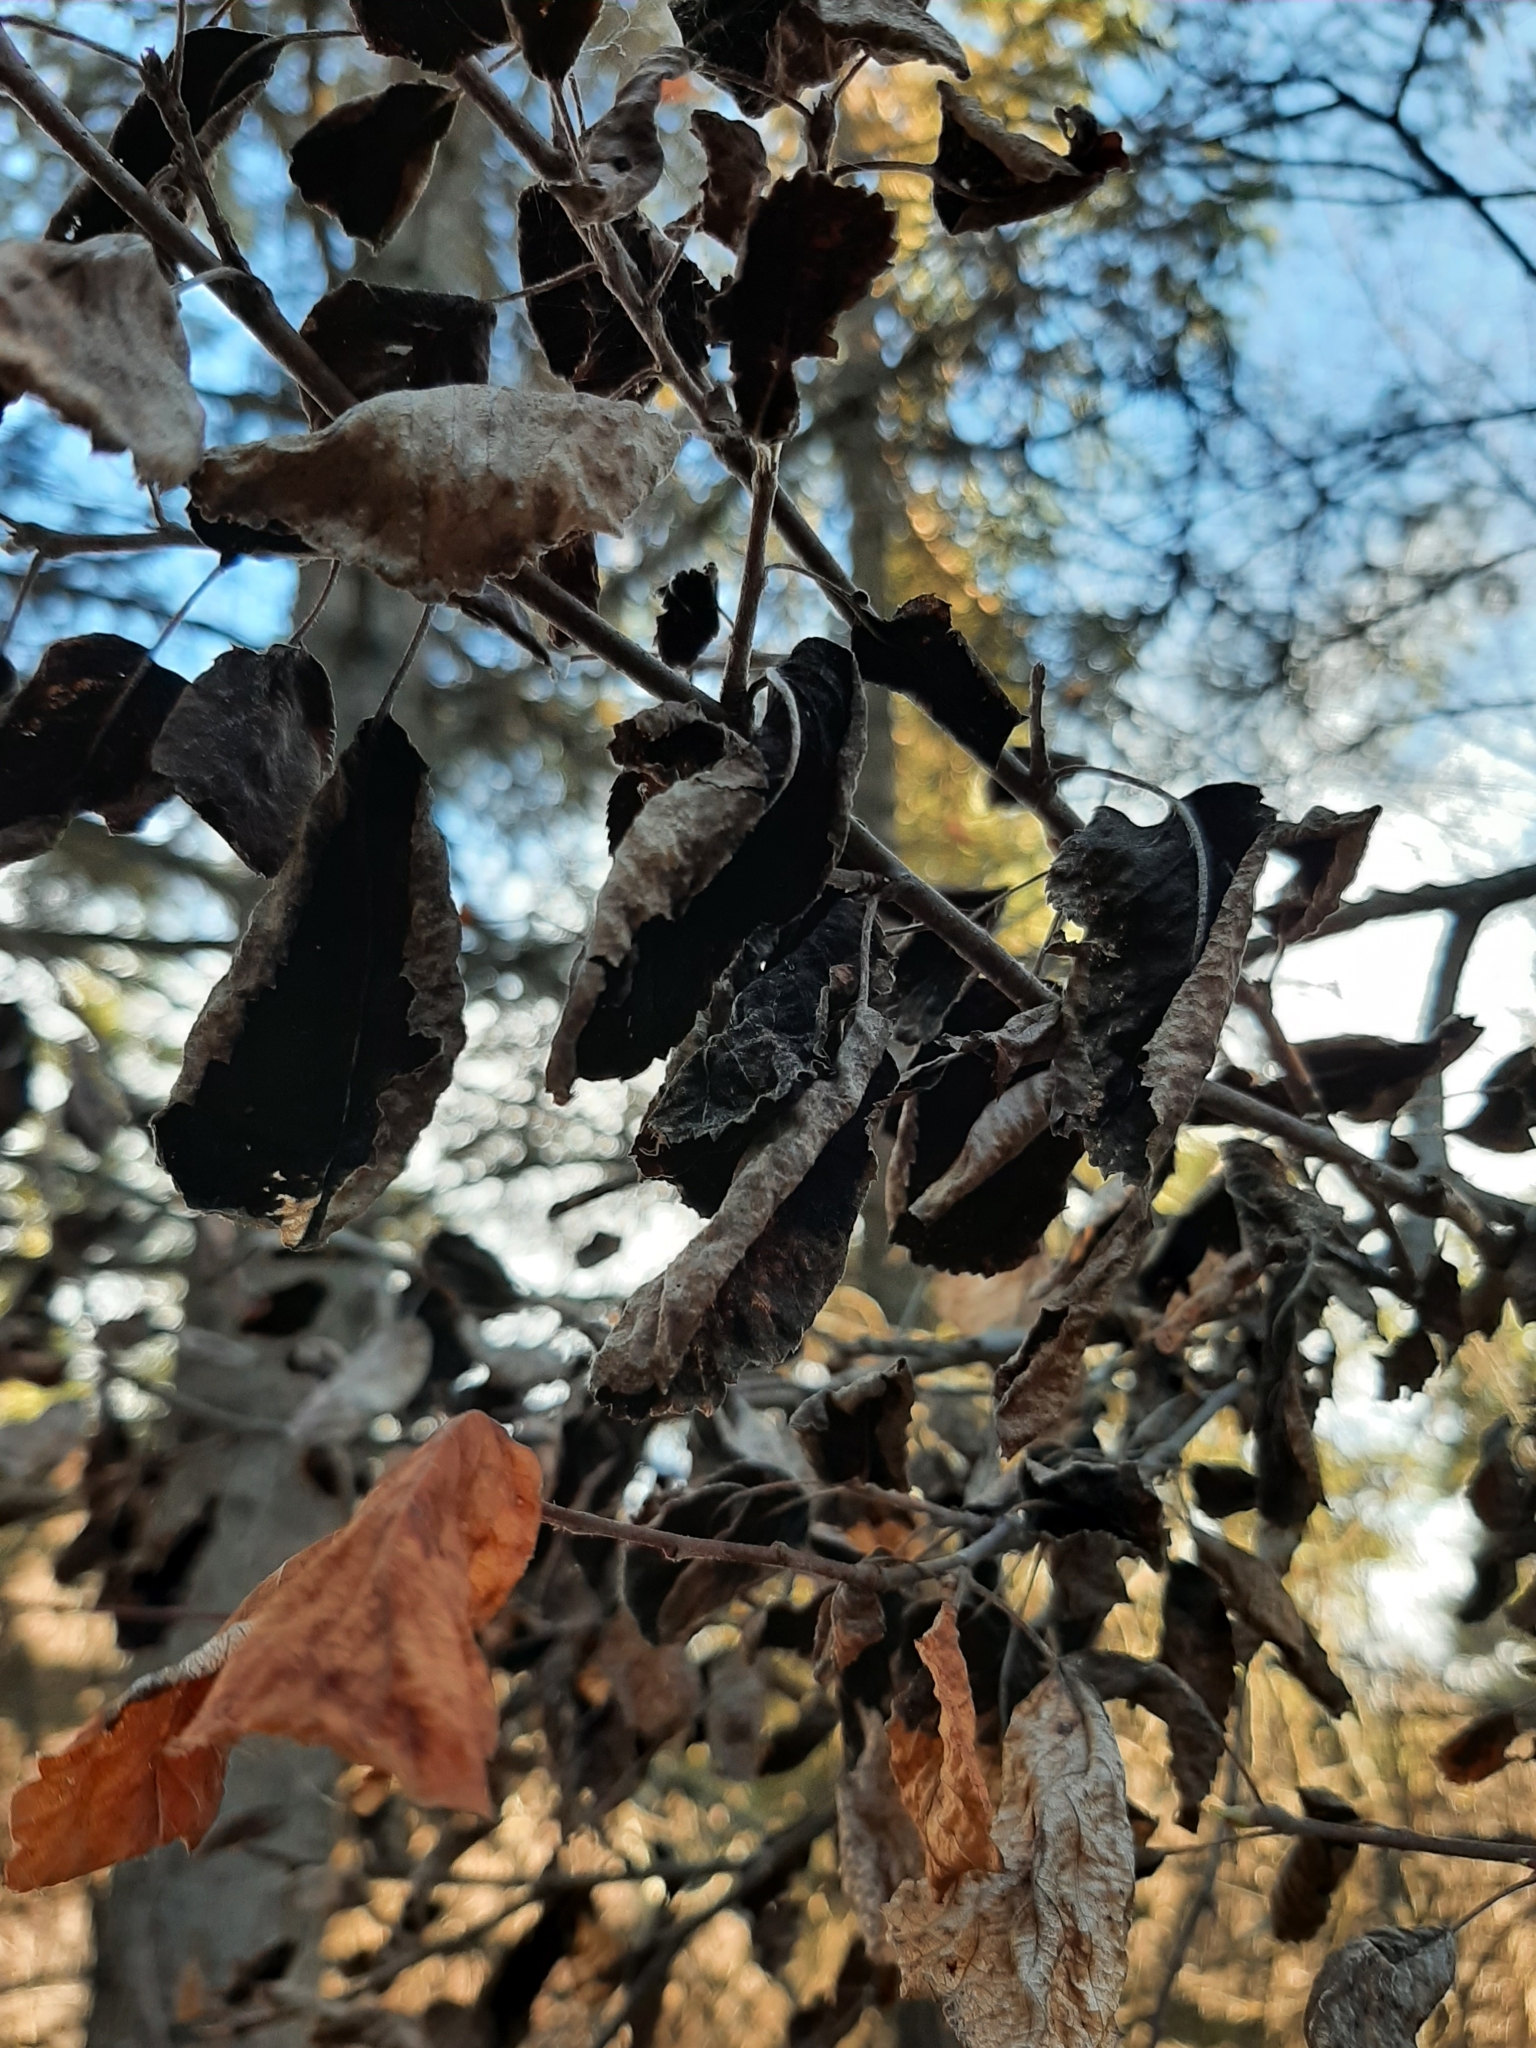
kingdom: Fungi
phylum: Ascomycota
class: Dothideomycetes
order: Venturiales
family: Venturiaceae
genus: Apiosporina
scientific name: Apiosporina collinsii
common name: Black leaf
